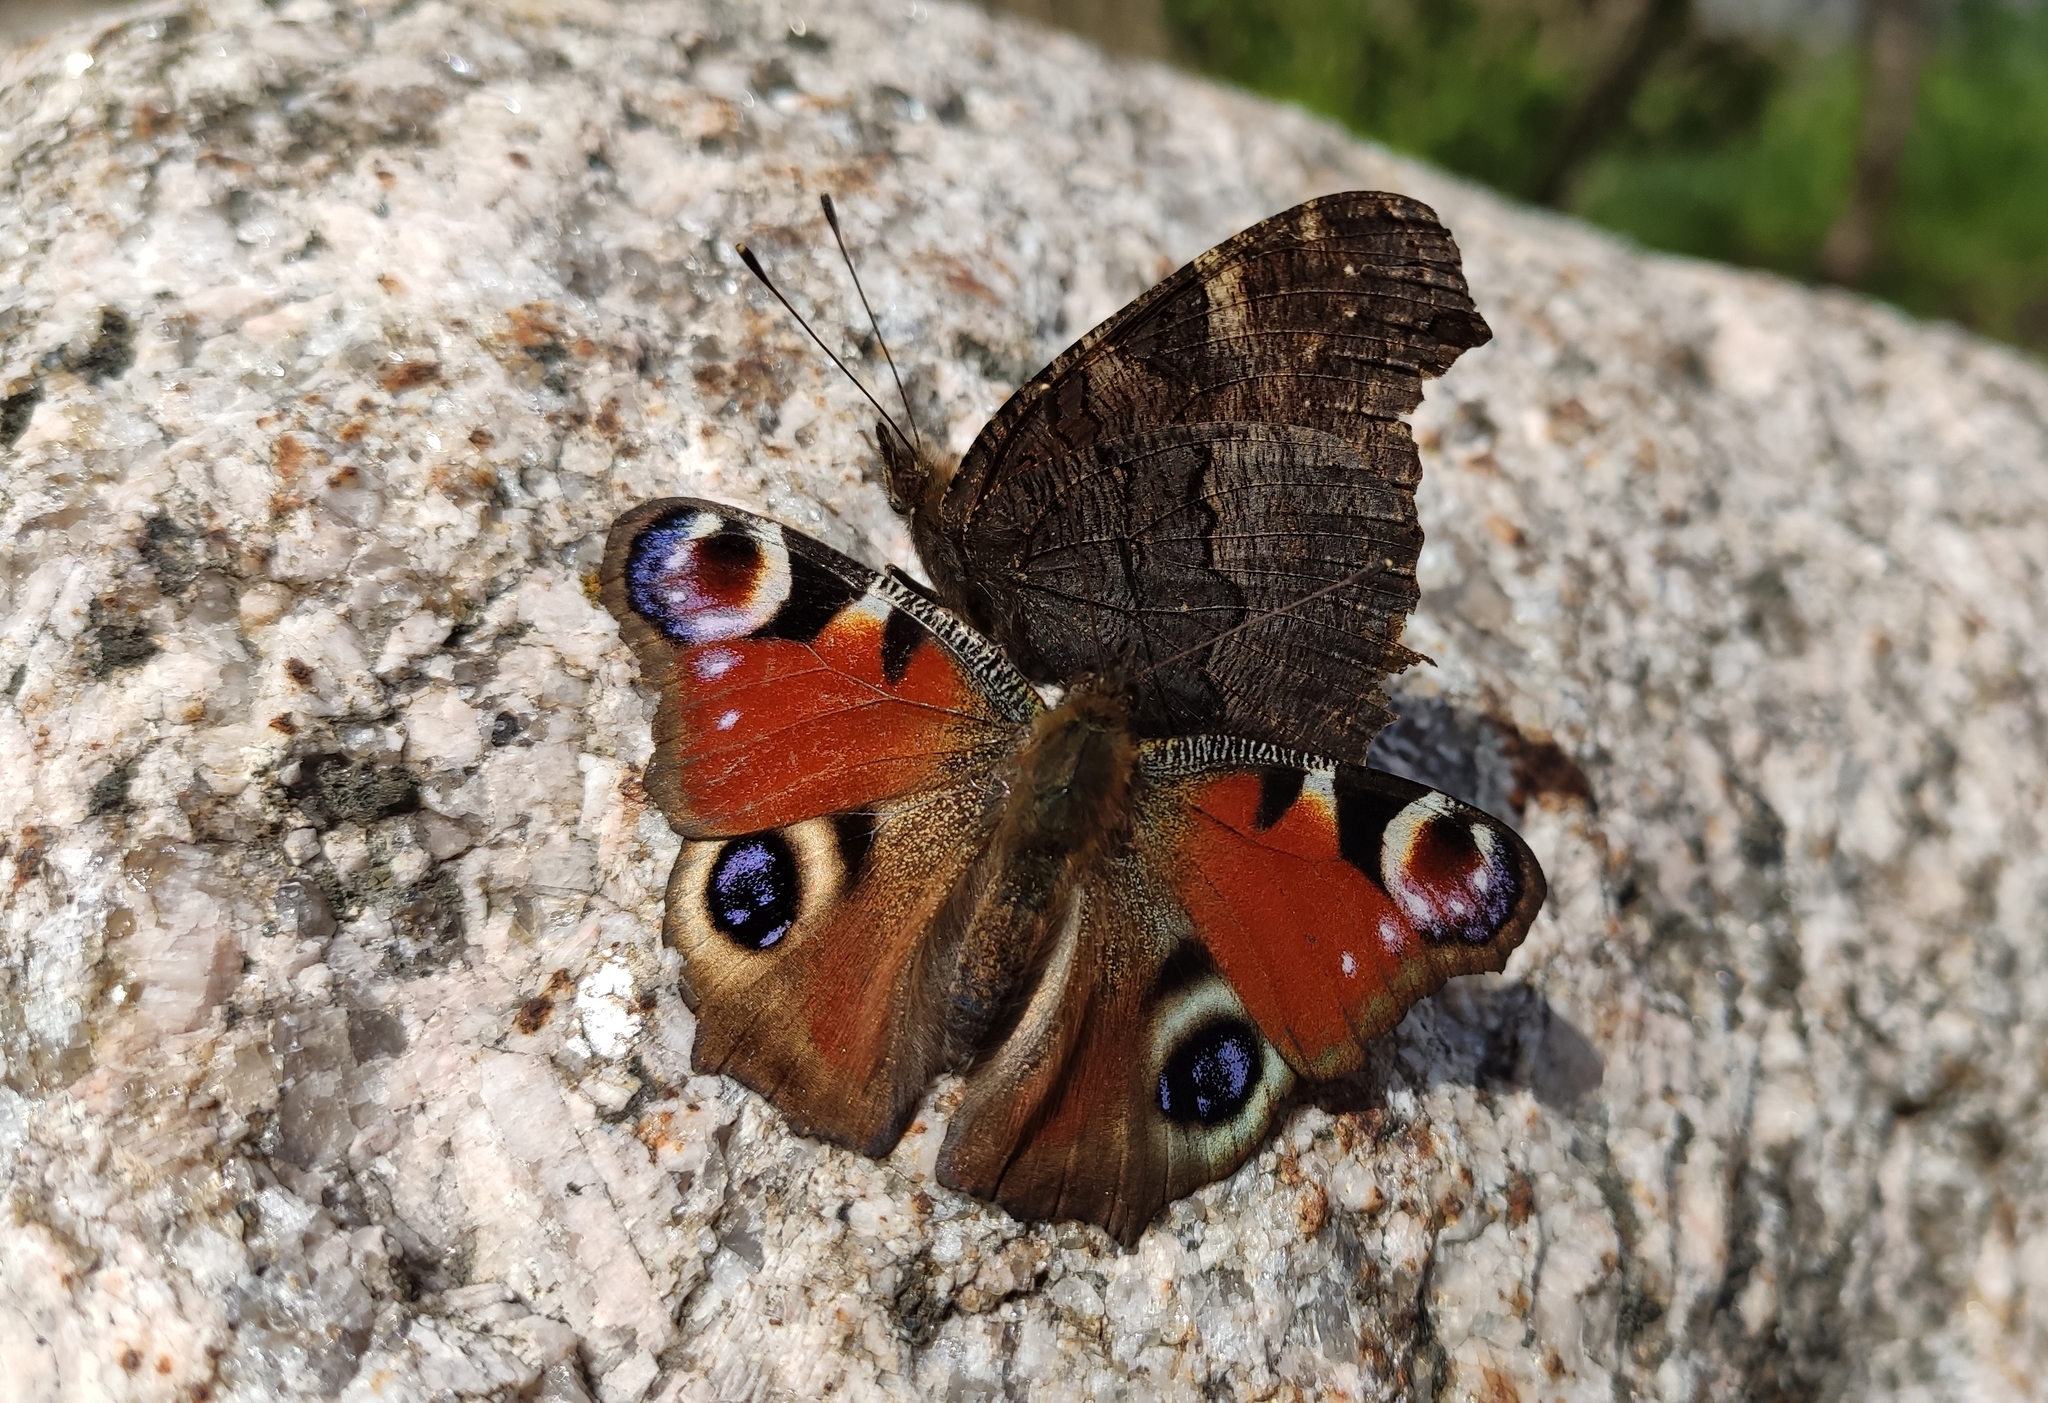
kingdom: Animalia
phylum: Arthropoda
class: Insecta
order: Lepidoptera
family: Nymphalidae
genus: Aglais
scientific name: Aglais io
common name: Peacock
